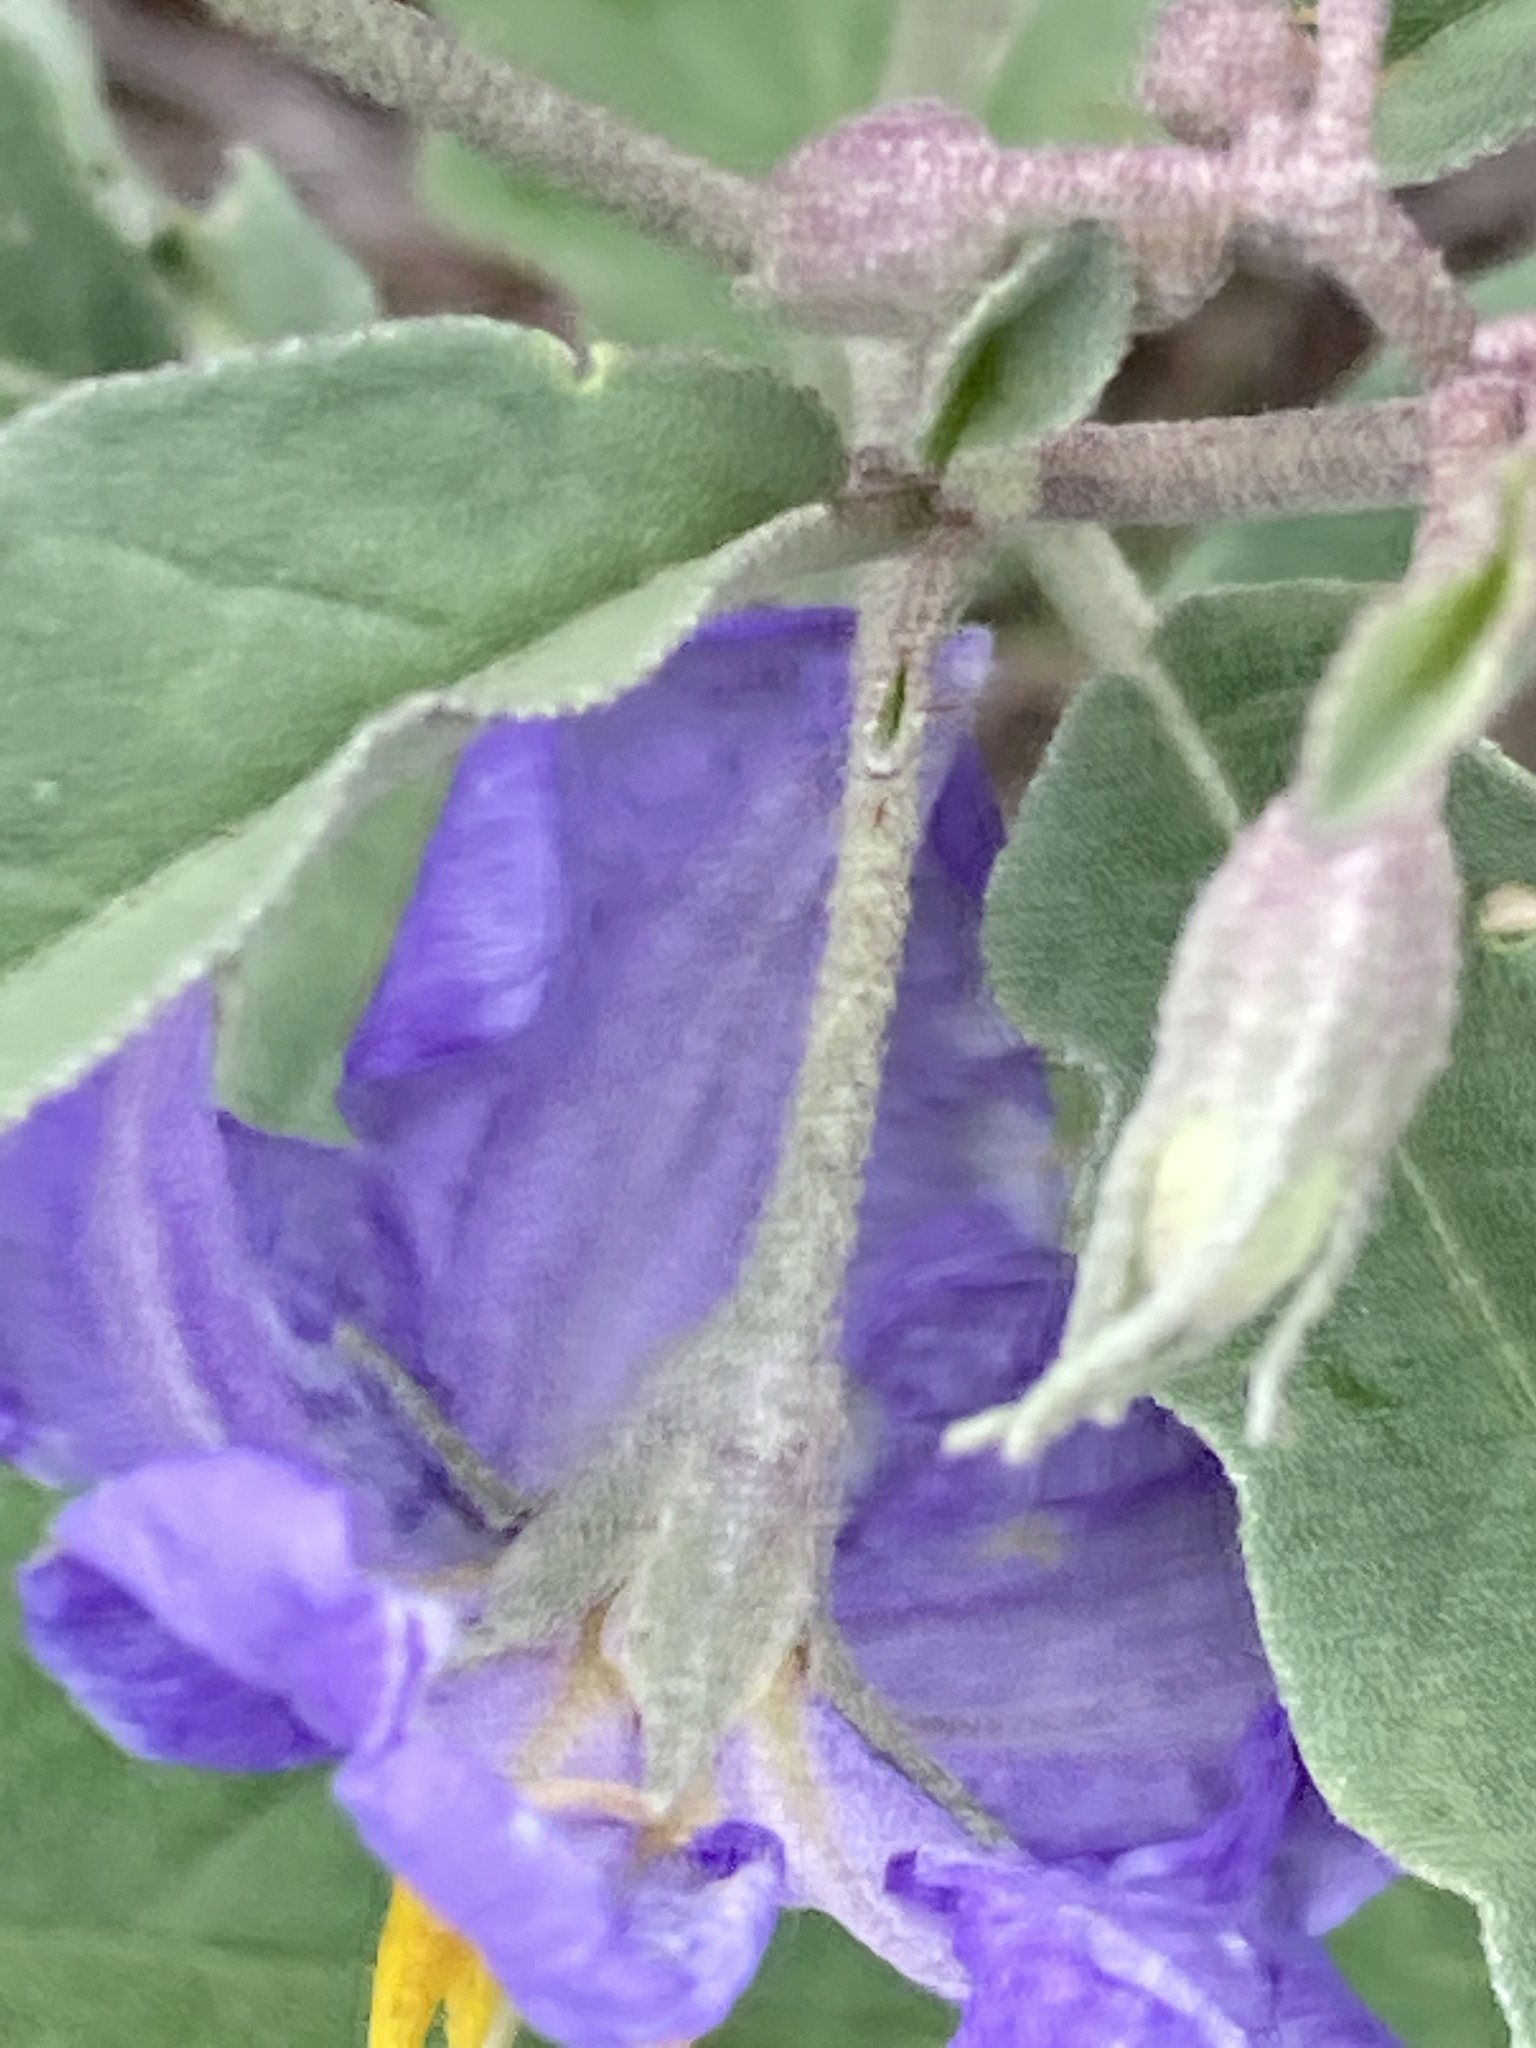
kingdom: Plantae
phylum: Tracheophyta
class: Magnoliopsida
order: Solanales
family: Solanaceae
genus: Solanum
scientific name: Solanum elaeagnifolium
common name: Silverleaf nightshade
